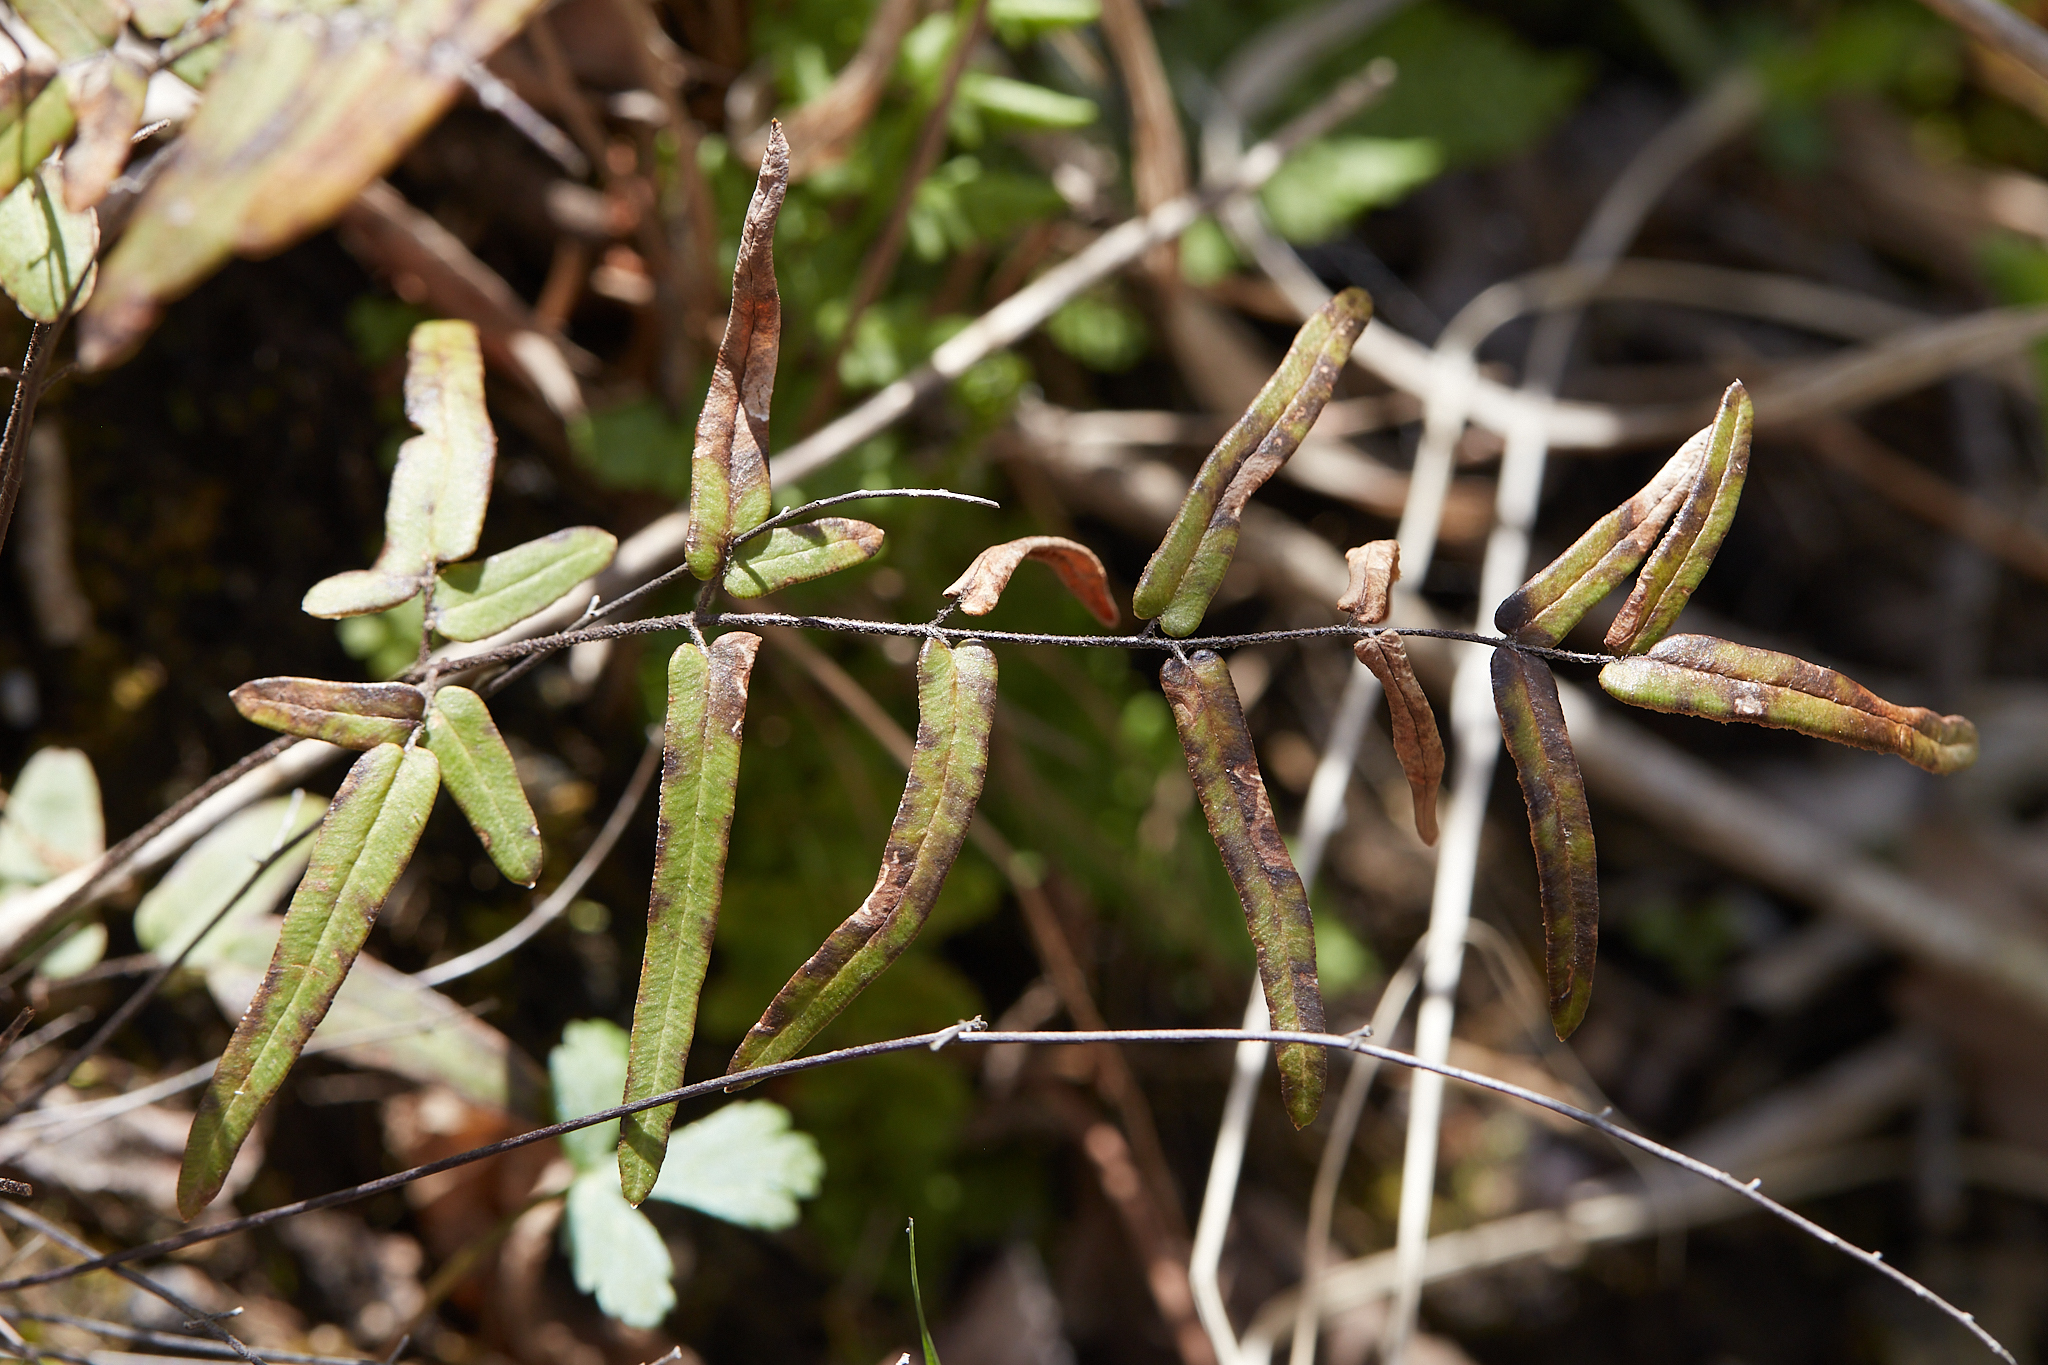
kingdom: Plantae
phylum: Tracheophyta
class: Polypodiopsida
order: Polypodiales
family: Pteridaceae
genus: Pellaea
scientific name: Pellaea atropurpurea
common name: Hairy cliffbrake
